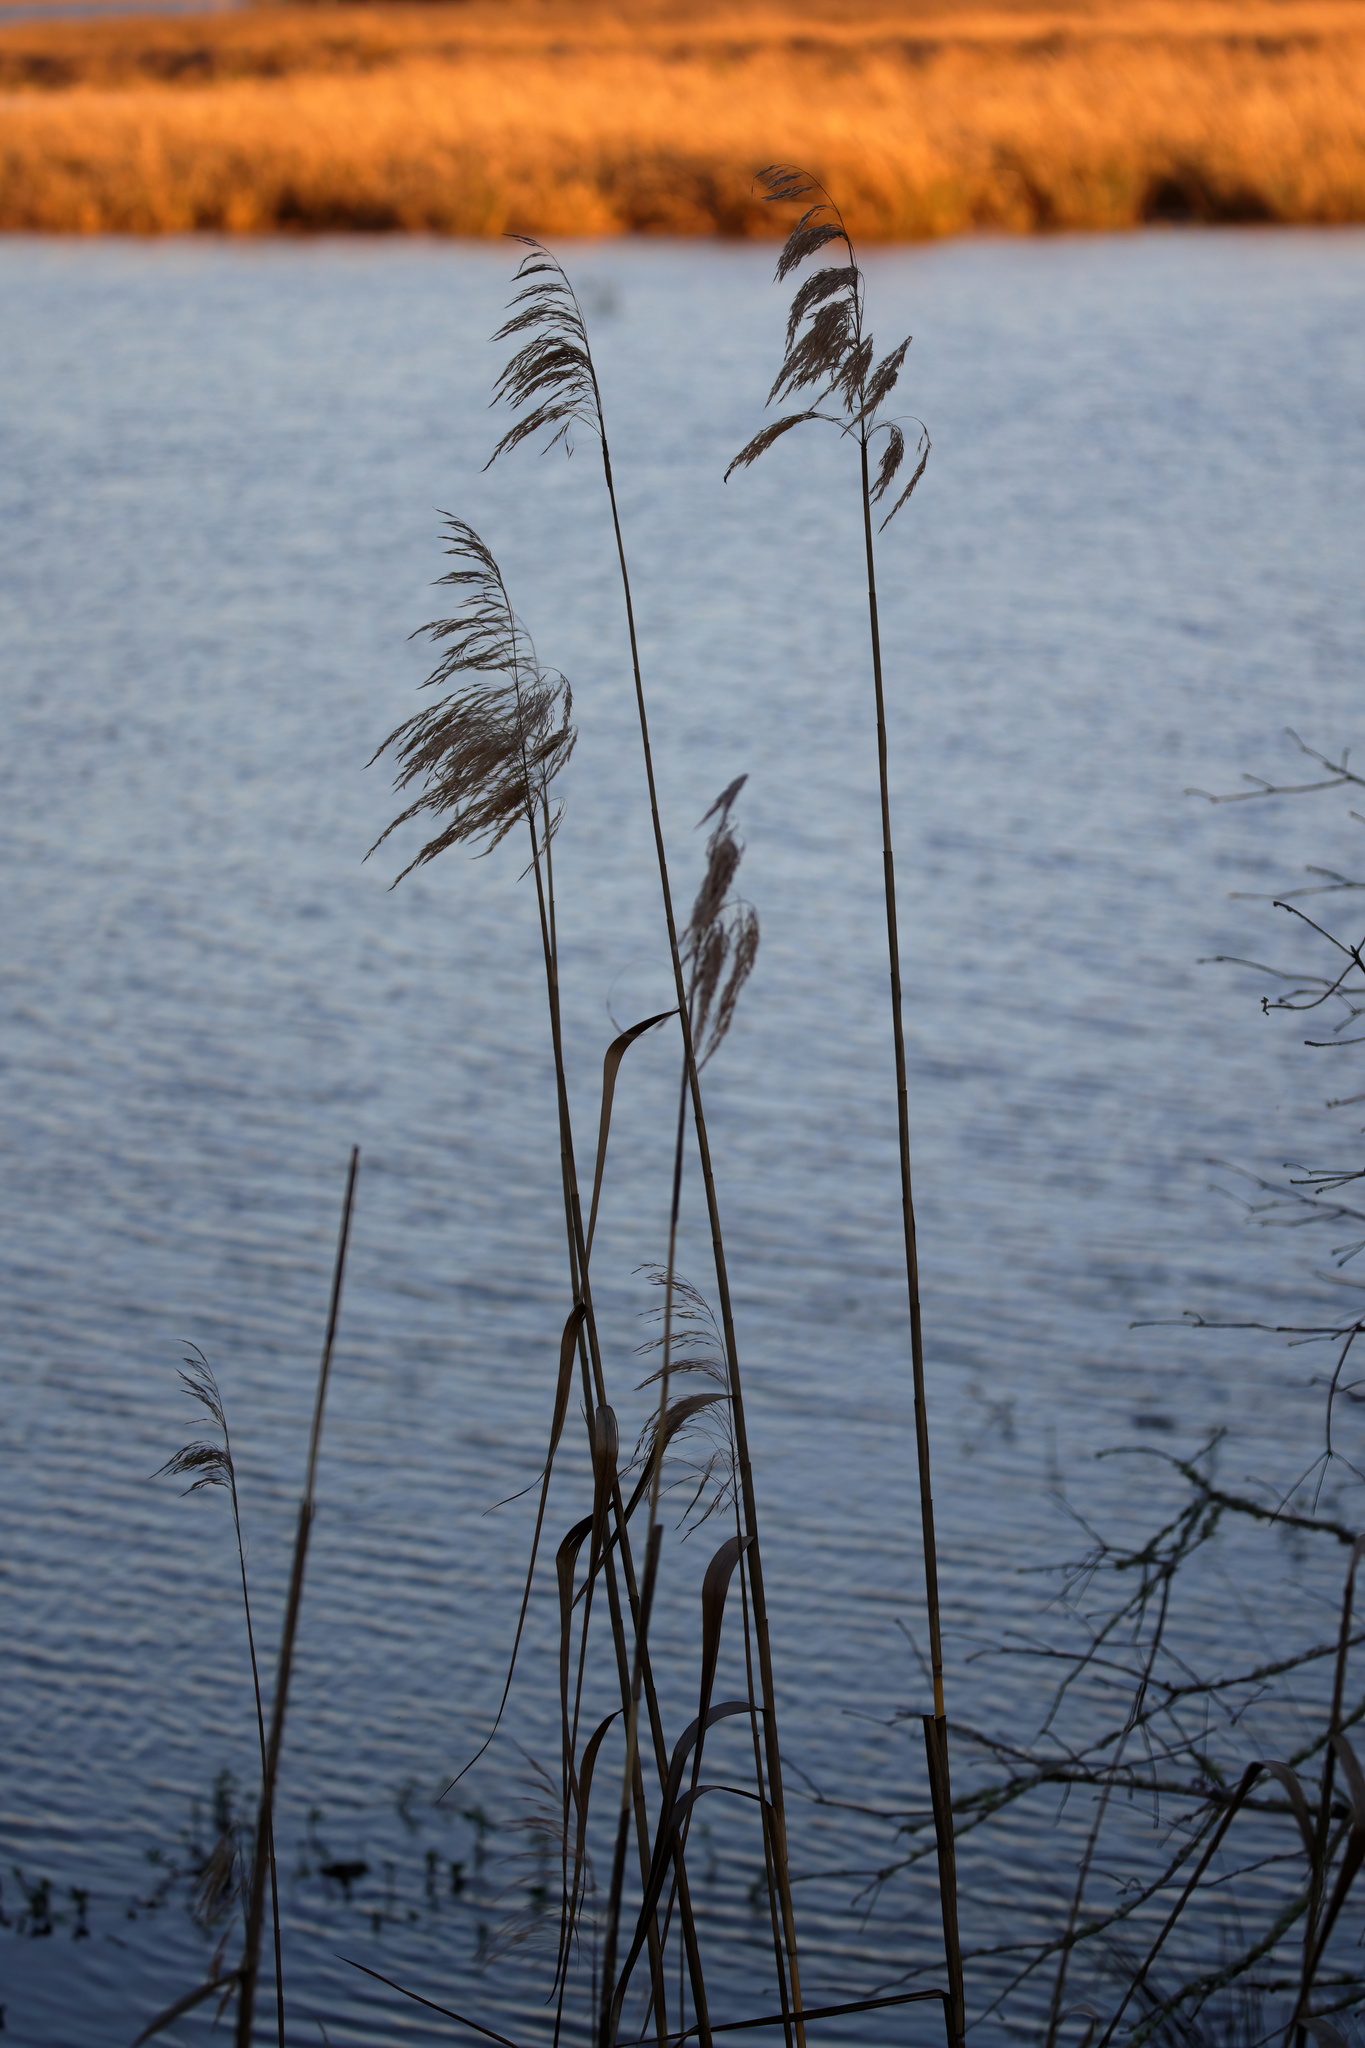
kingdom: Plantae
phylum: Tracheophyta
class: Liliopsida
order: Poales
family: Poaceae
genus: Phragmites
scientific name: Phragmites australis
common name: Common reed
